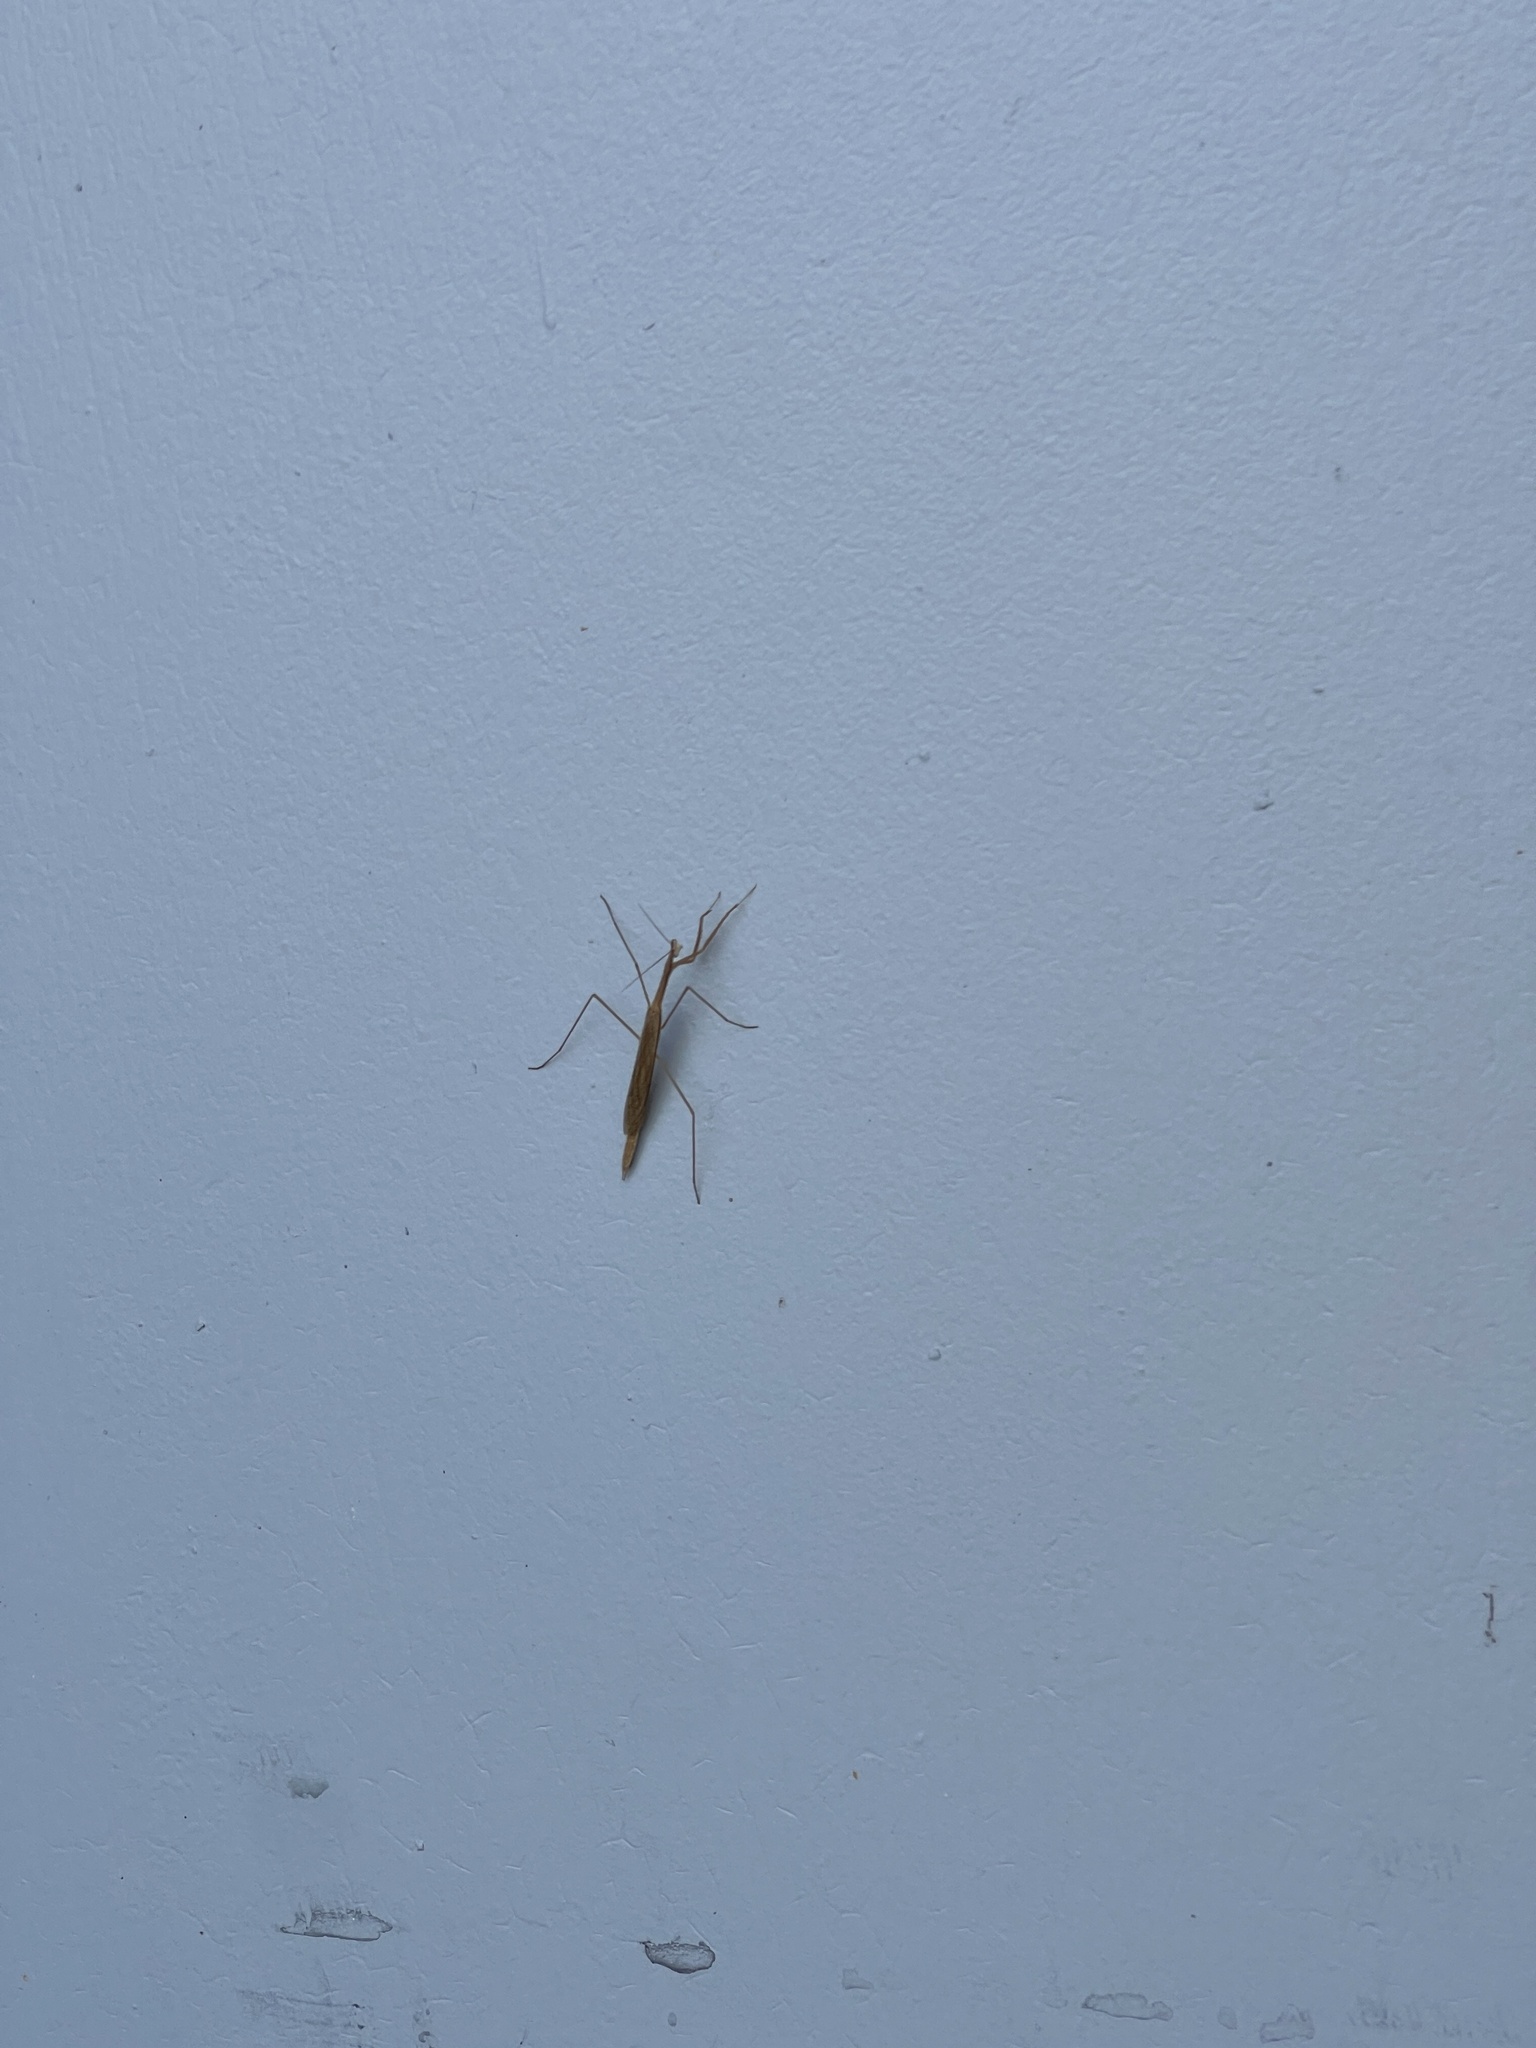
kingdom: Animalia
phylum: Arthropoda
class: Insecta
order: Mantodea
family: Thespidae
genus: Bistanta
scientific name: Bistanta campestris
